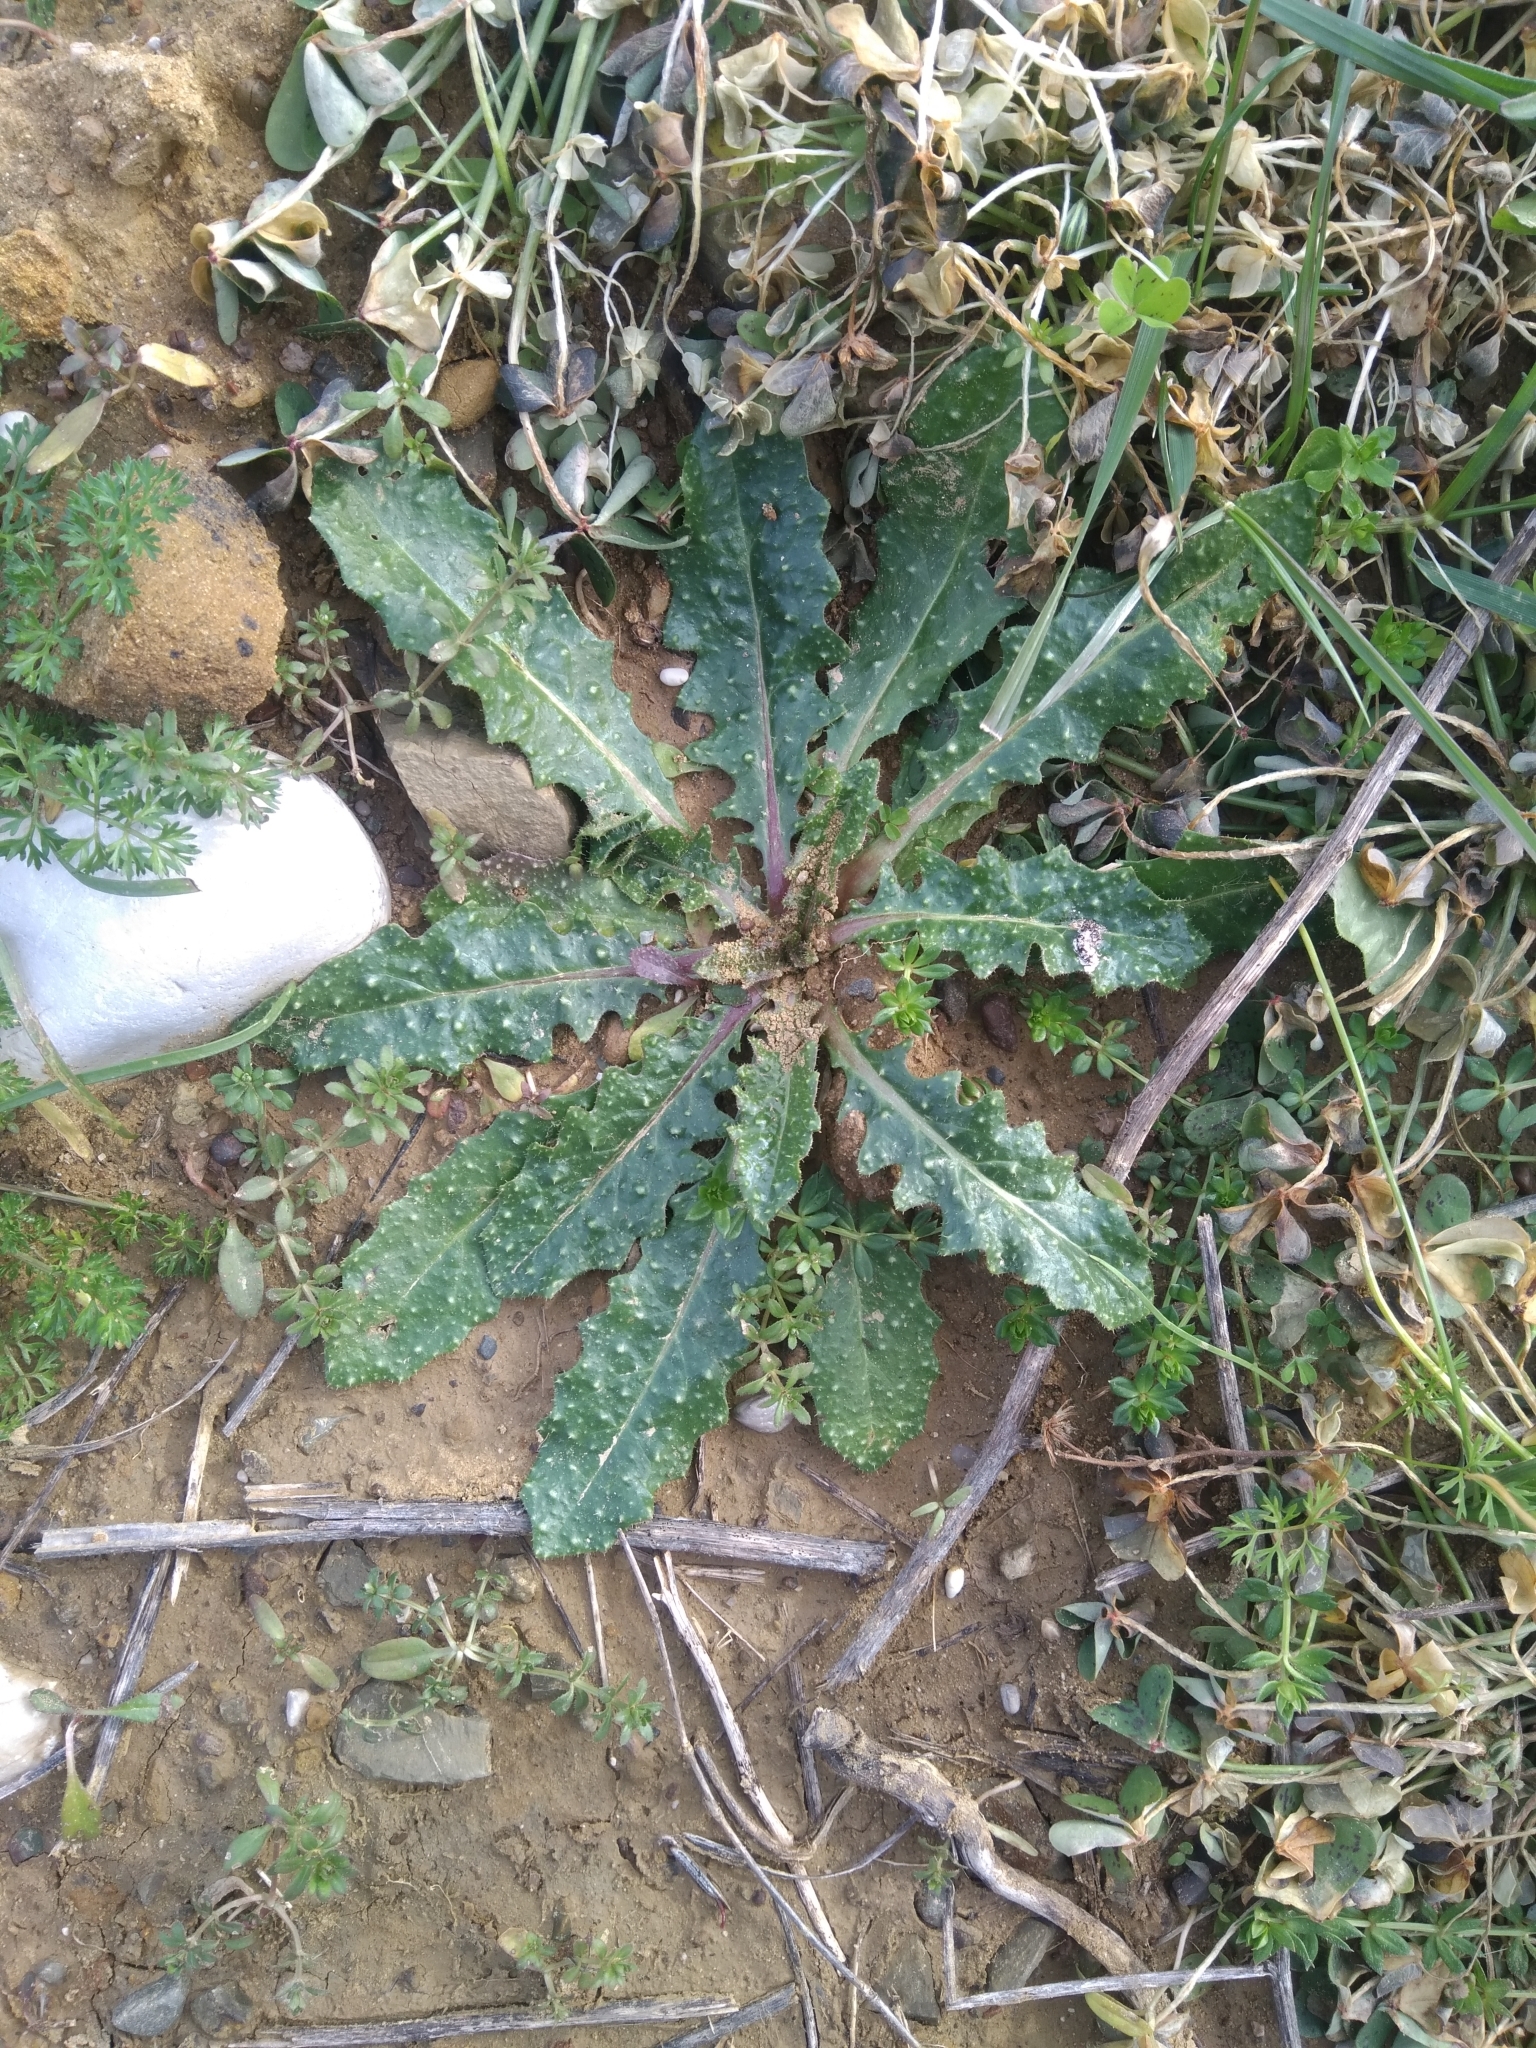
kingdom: Plantae
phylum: Tracheophyta
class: Magnoliopsida
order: Asterales
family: Asteraceae
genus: Helminthotheca
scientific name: Helminthotheca echioides
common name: Ox-tongue
